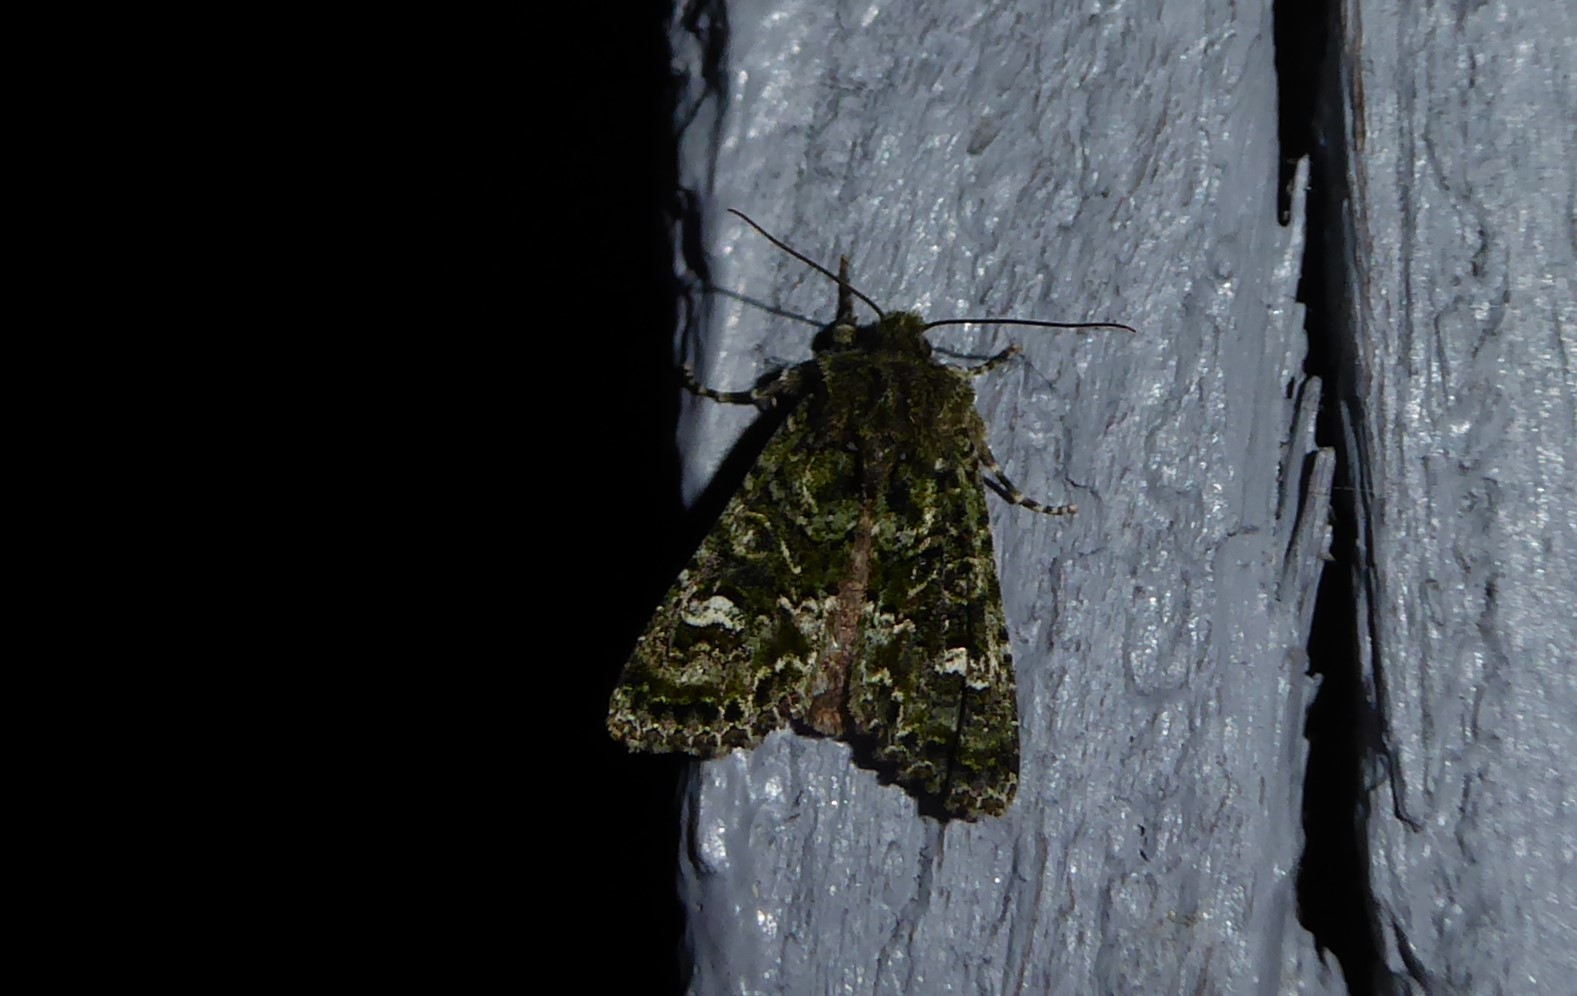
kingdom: Animalia
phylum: Arthropoda
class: Insecta
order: Lepidoptera
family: Noctuidae
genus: Ichneutica
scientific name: Ichneutica
